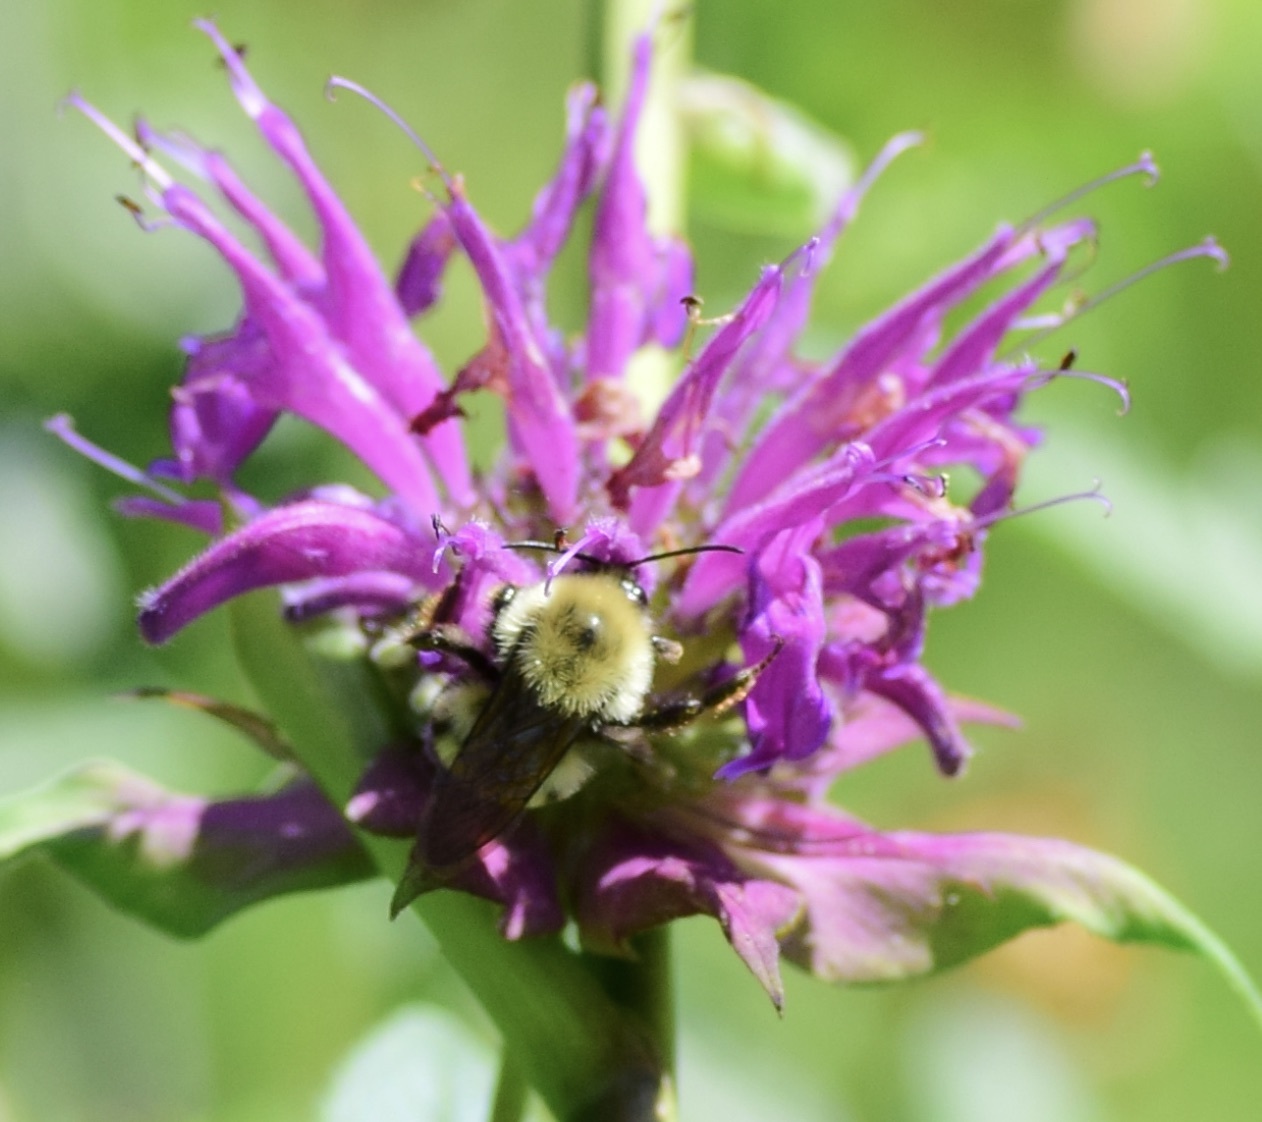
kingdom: Animalia
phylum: Arthropoda
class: Insecta
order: Hymenoptera
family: Apidae
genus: Bombus
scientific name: Bombus bimaculatus
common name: Two-spotted bumble bee
